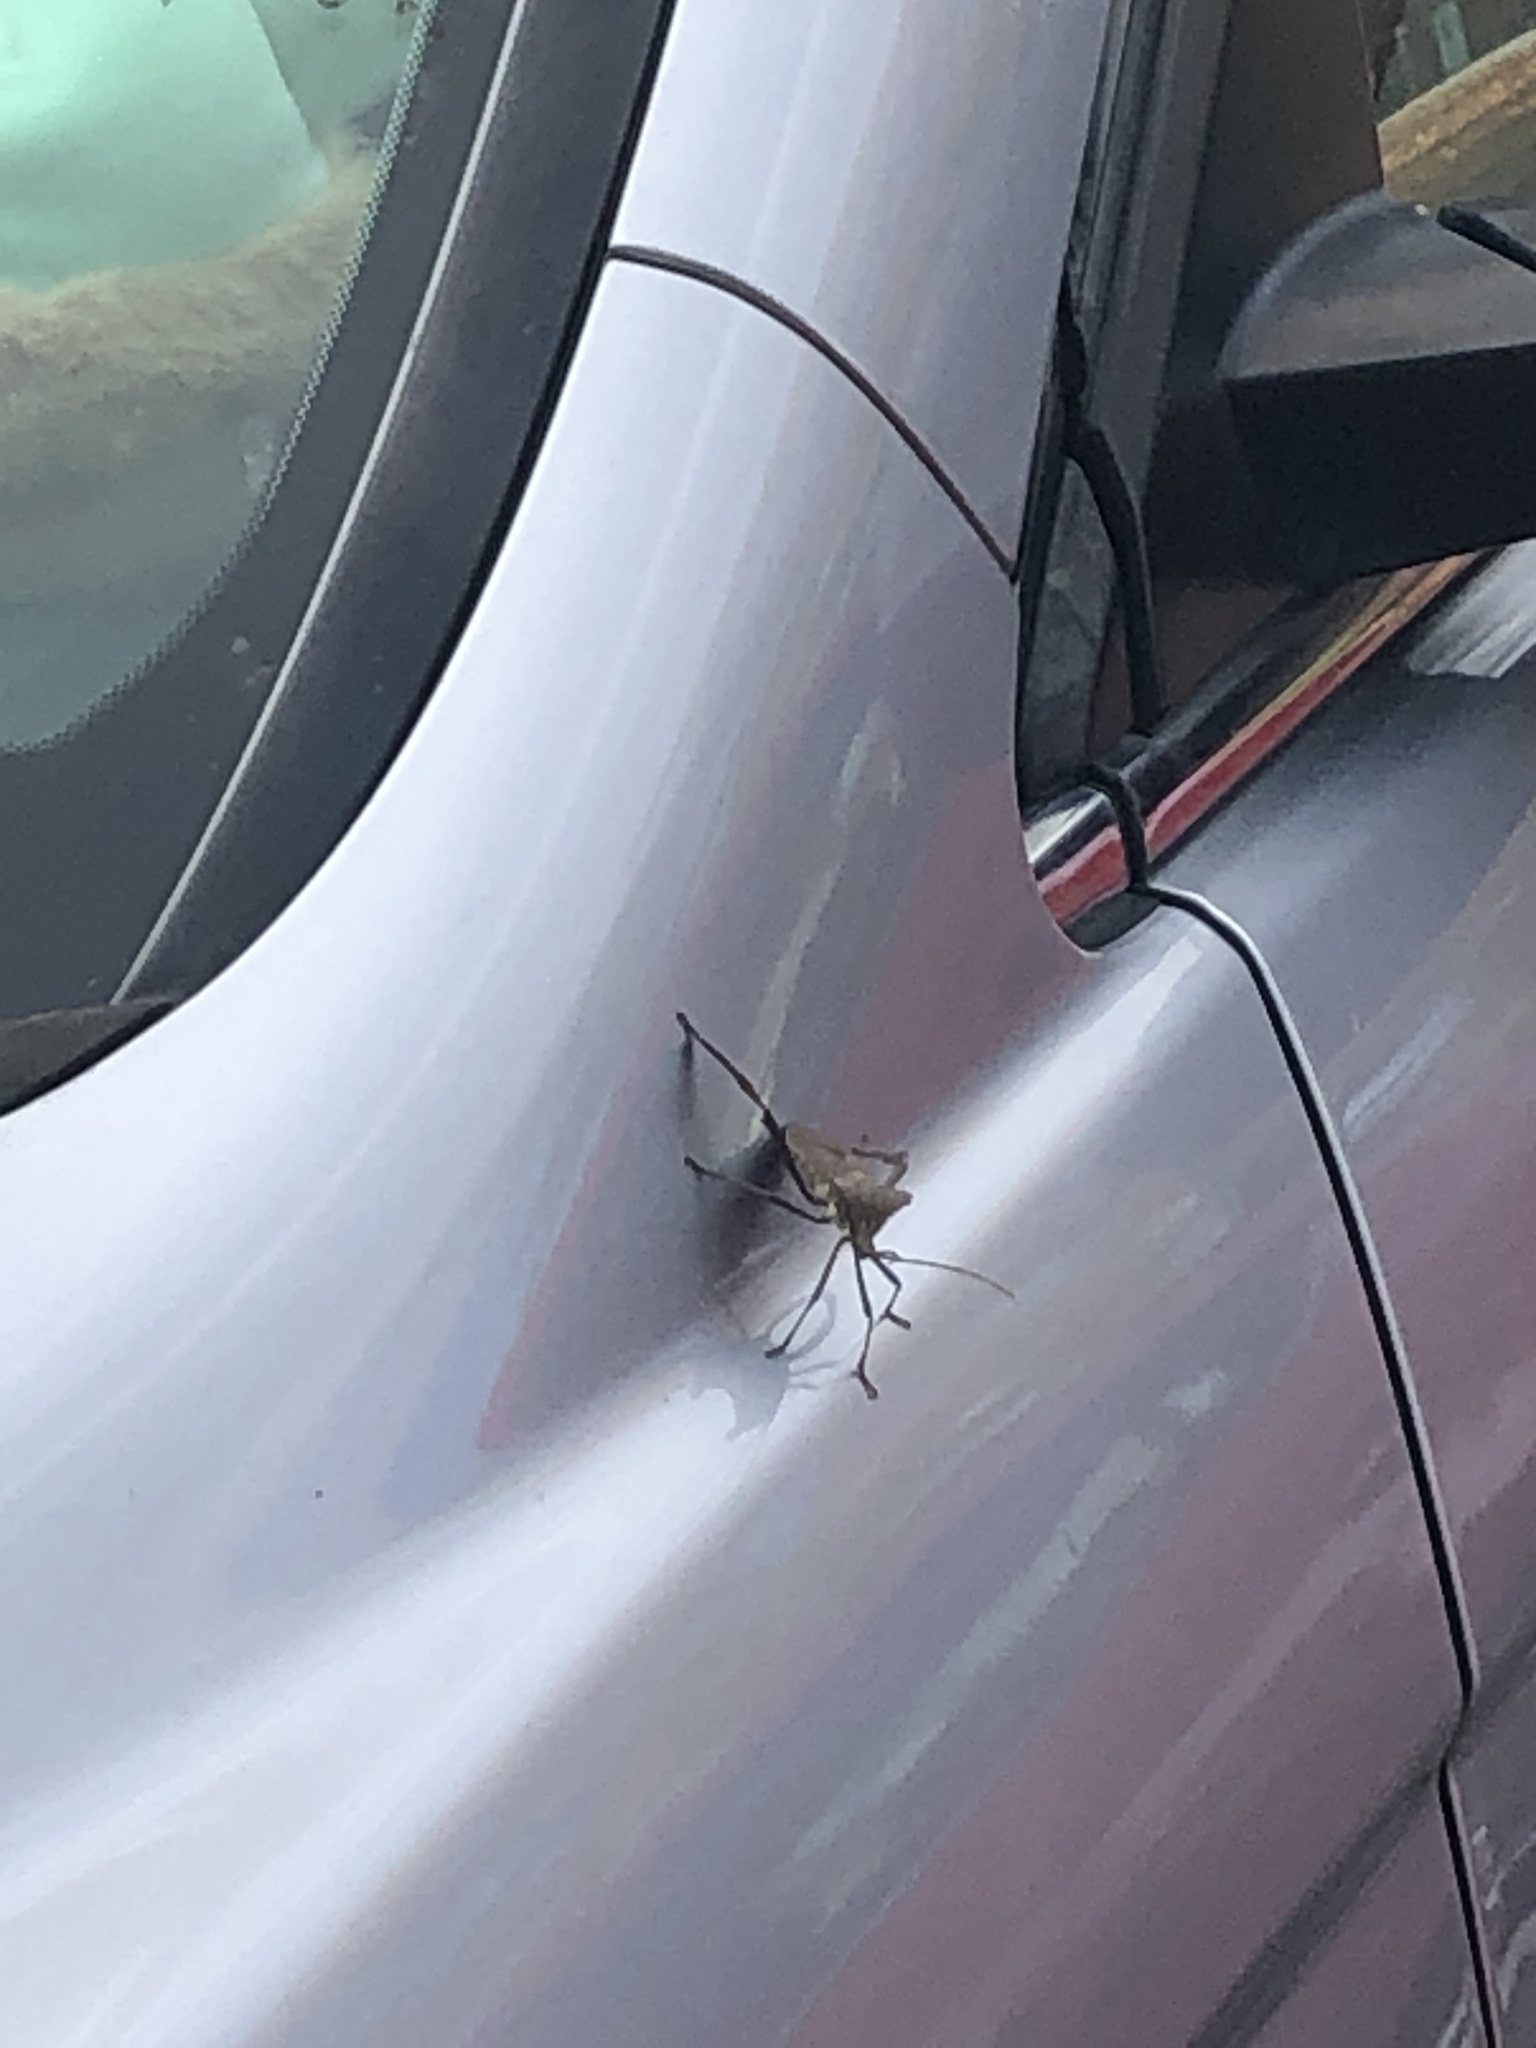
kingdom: Animalia
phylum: Arthropoda
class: Insecta
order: Hemiptera
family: Coreidae
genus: Acanthocephala
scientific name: Acanthocephala declivis
